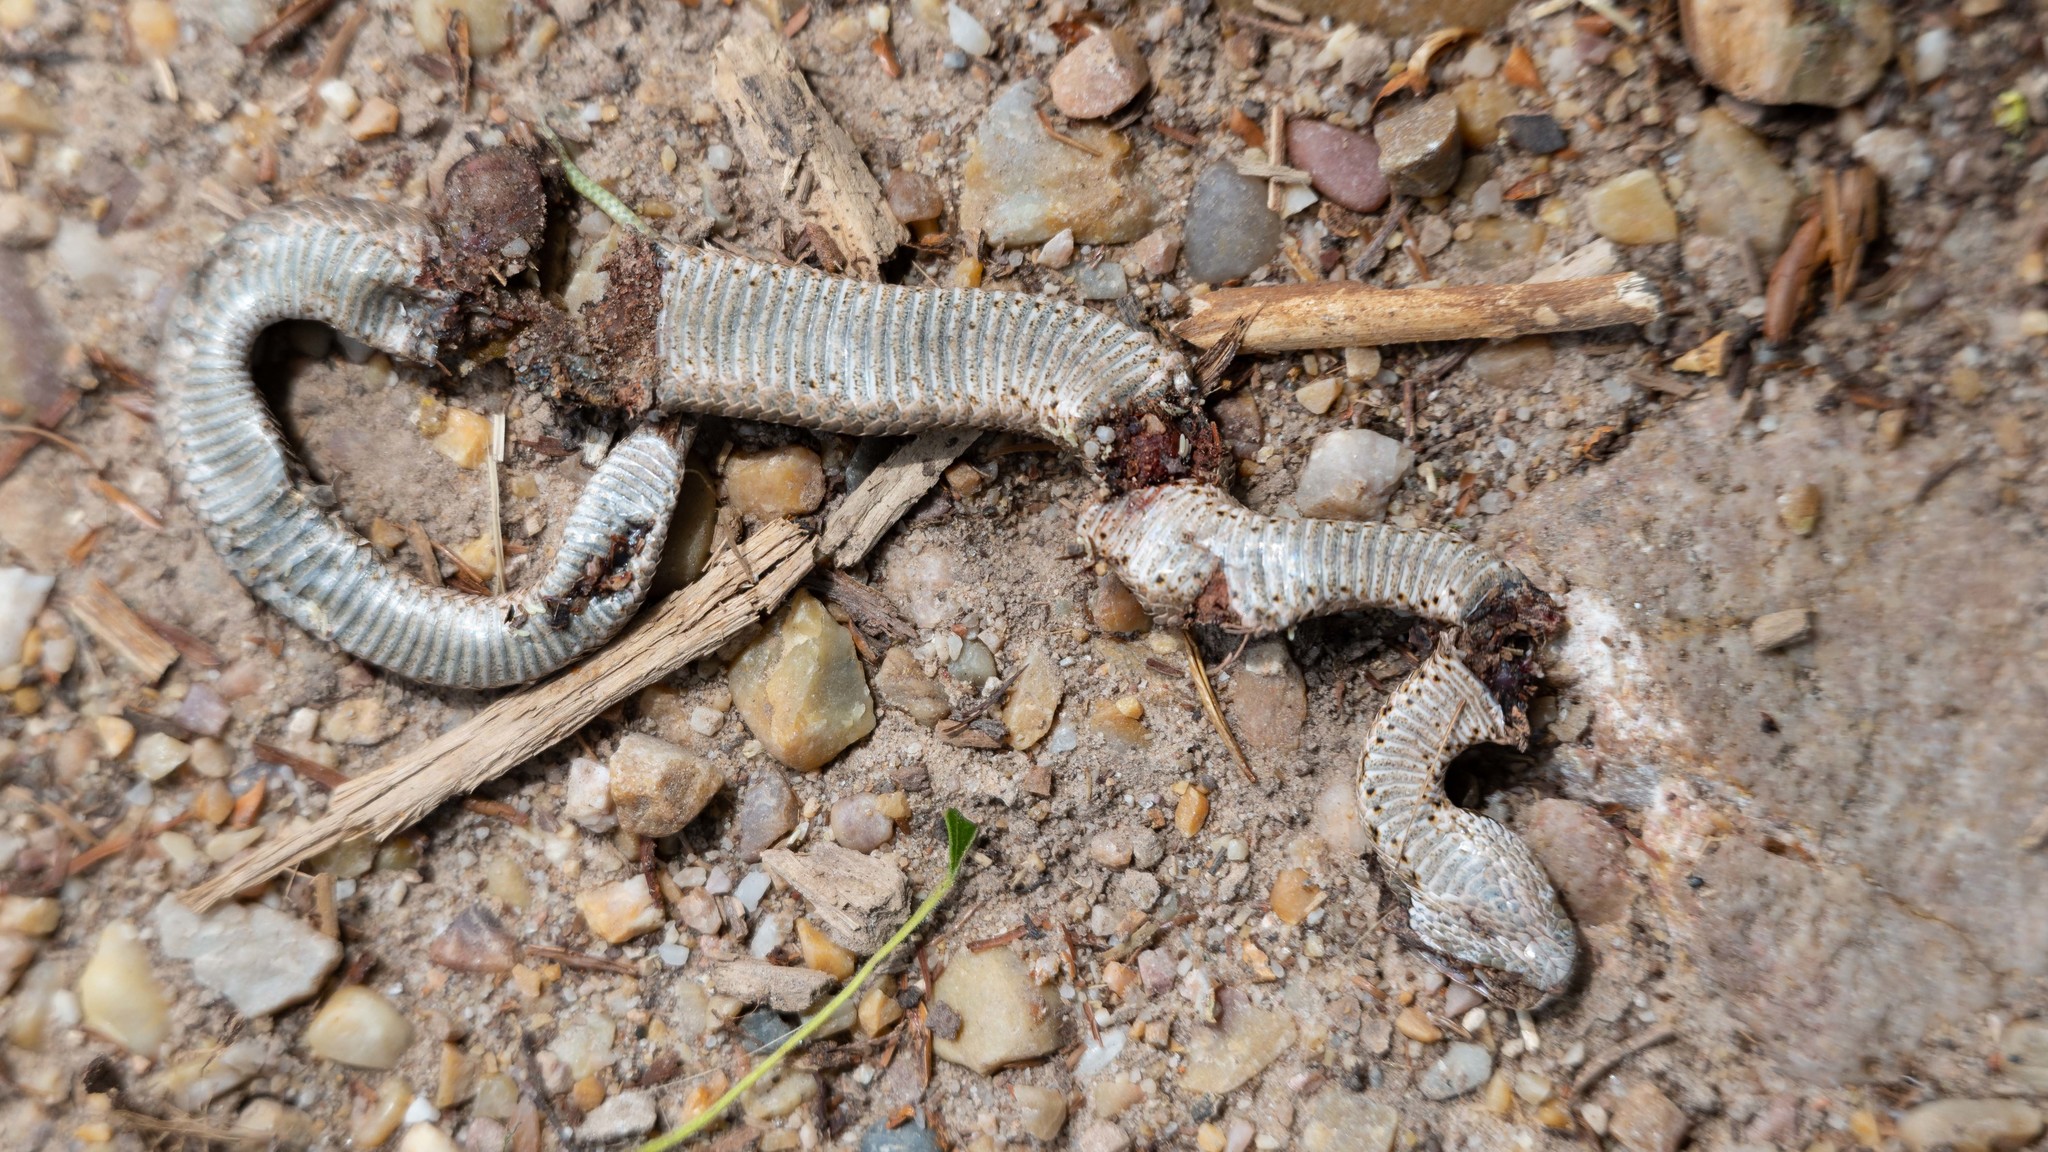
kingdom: Animalia
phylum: Chordata
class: Squamata
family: Viperidae
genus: Vipera
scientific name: Vipera latastei
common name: Lataste's viper
